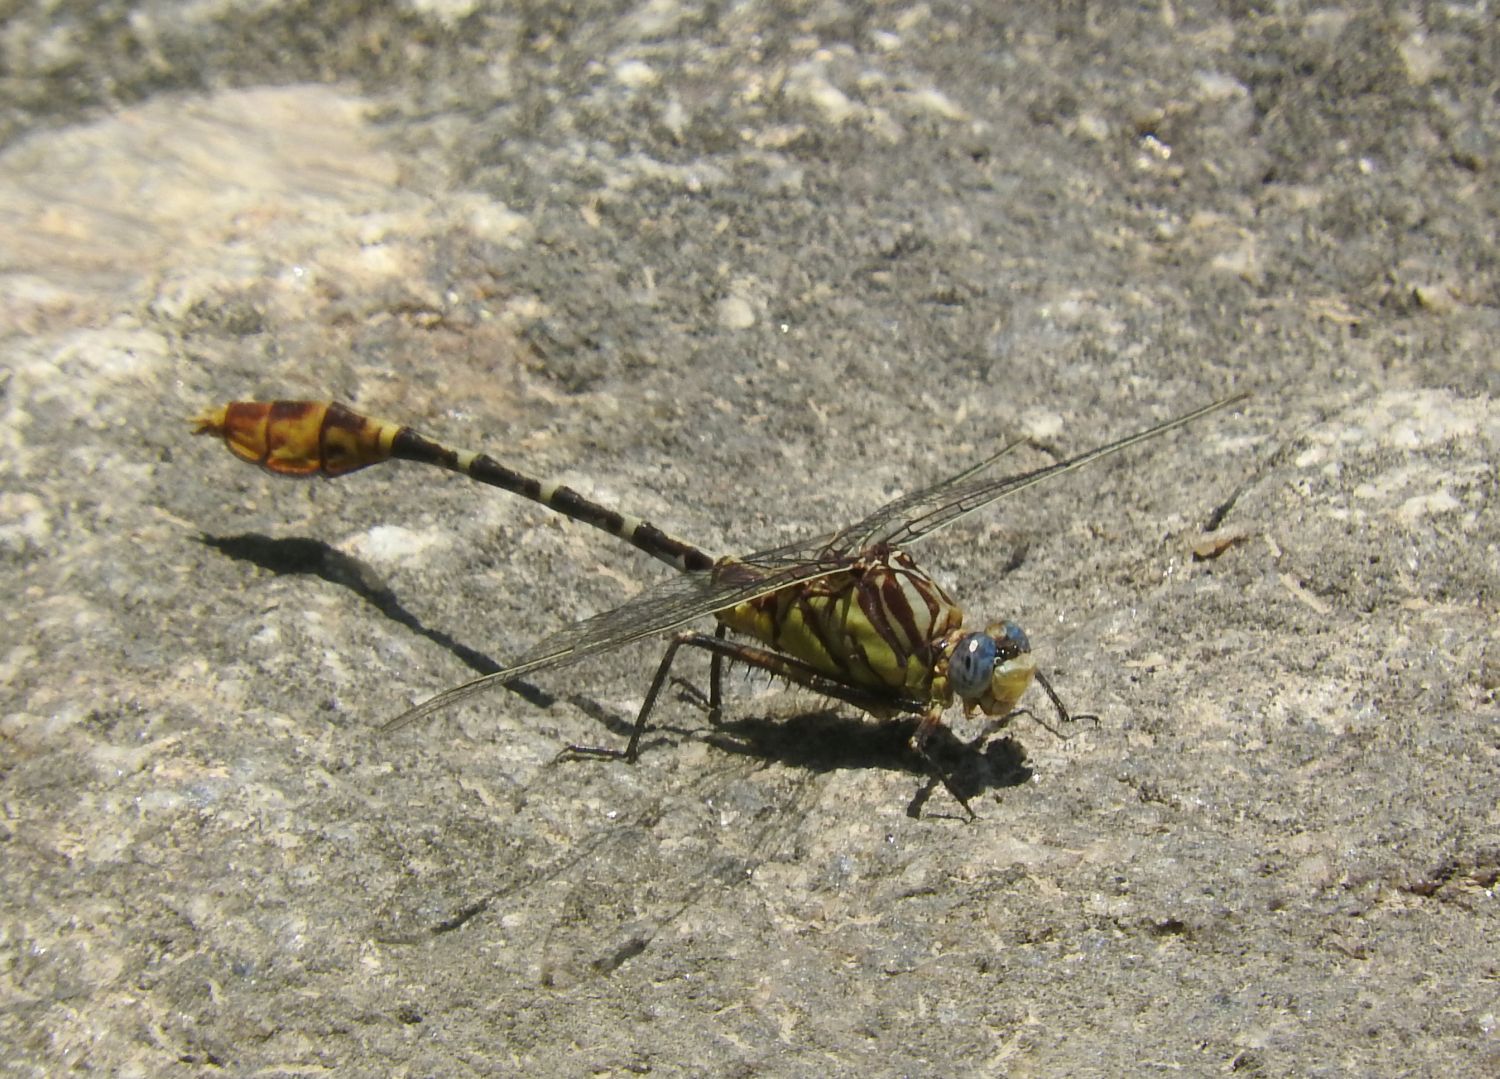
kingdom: Animalia
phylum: Arthropoda
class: Insecta
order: Odonata
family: Gomphidae
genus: Dromogomphus
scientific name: Dromogomphus spoliatus
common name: Flag-tailed spinyleg
